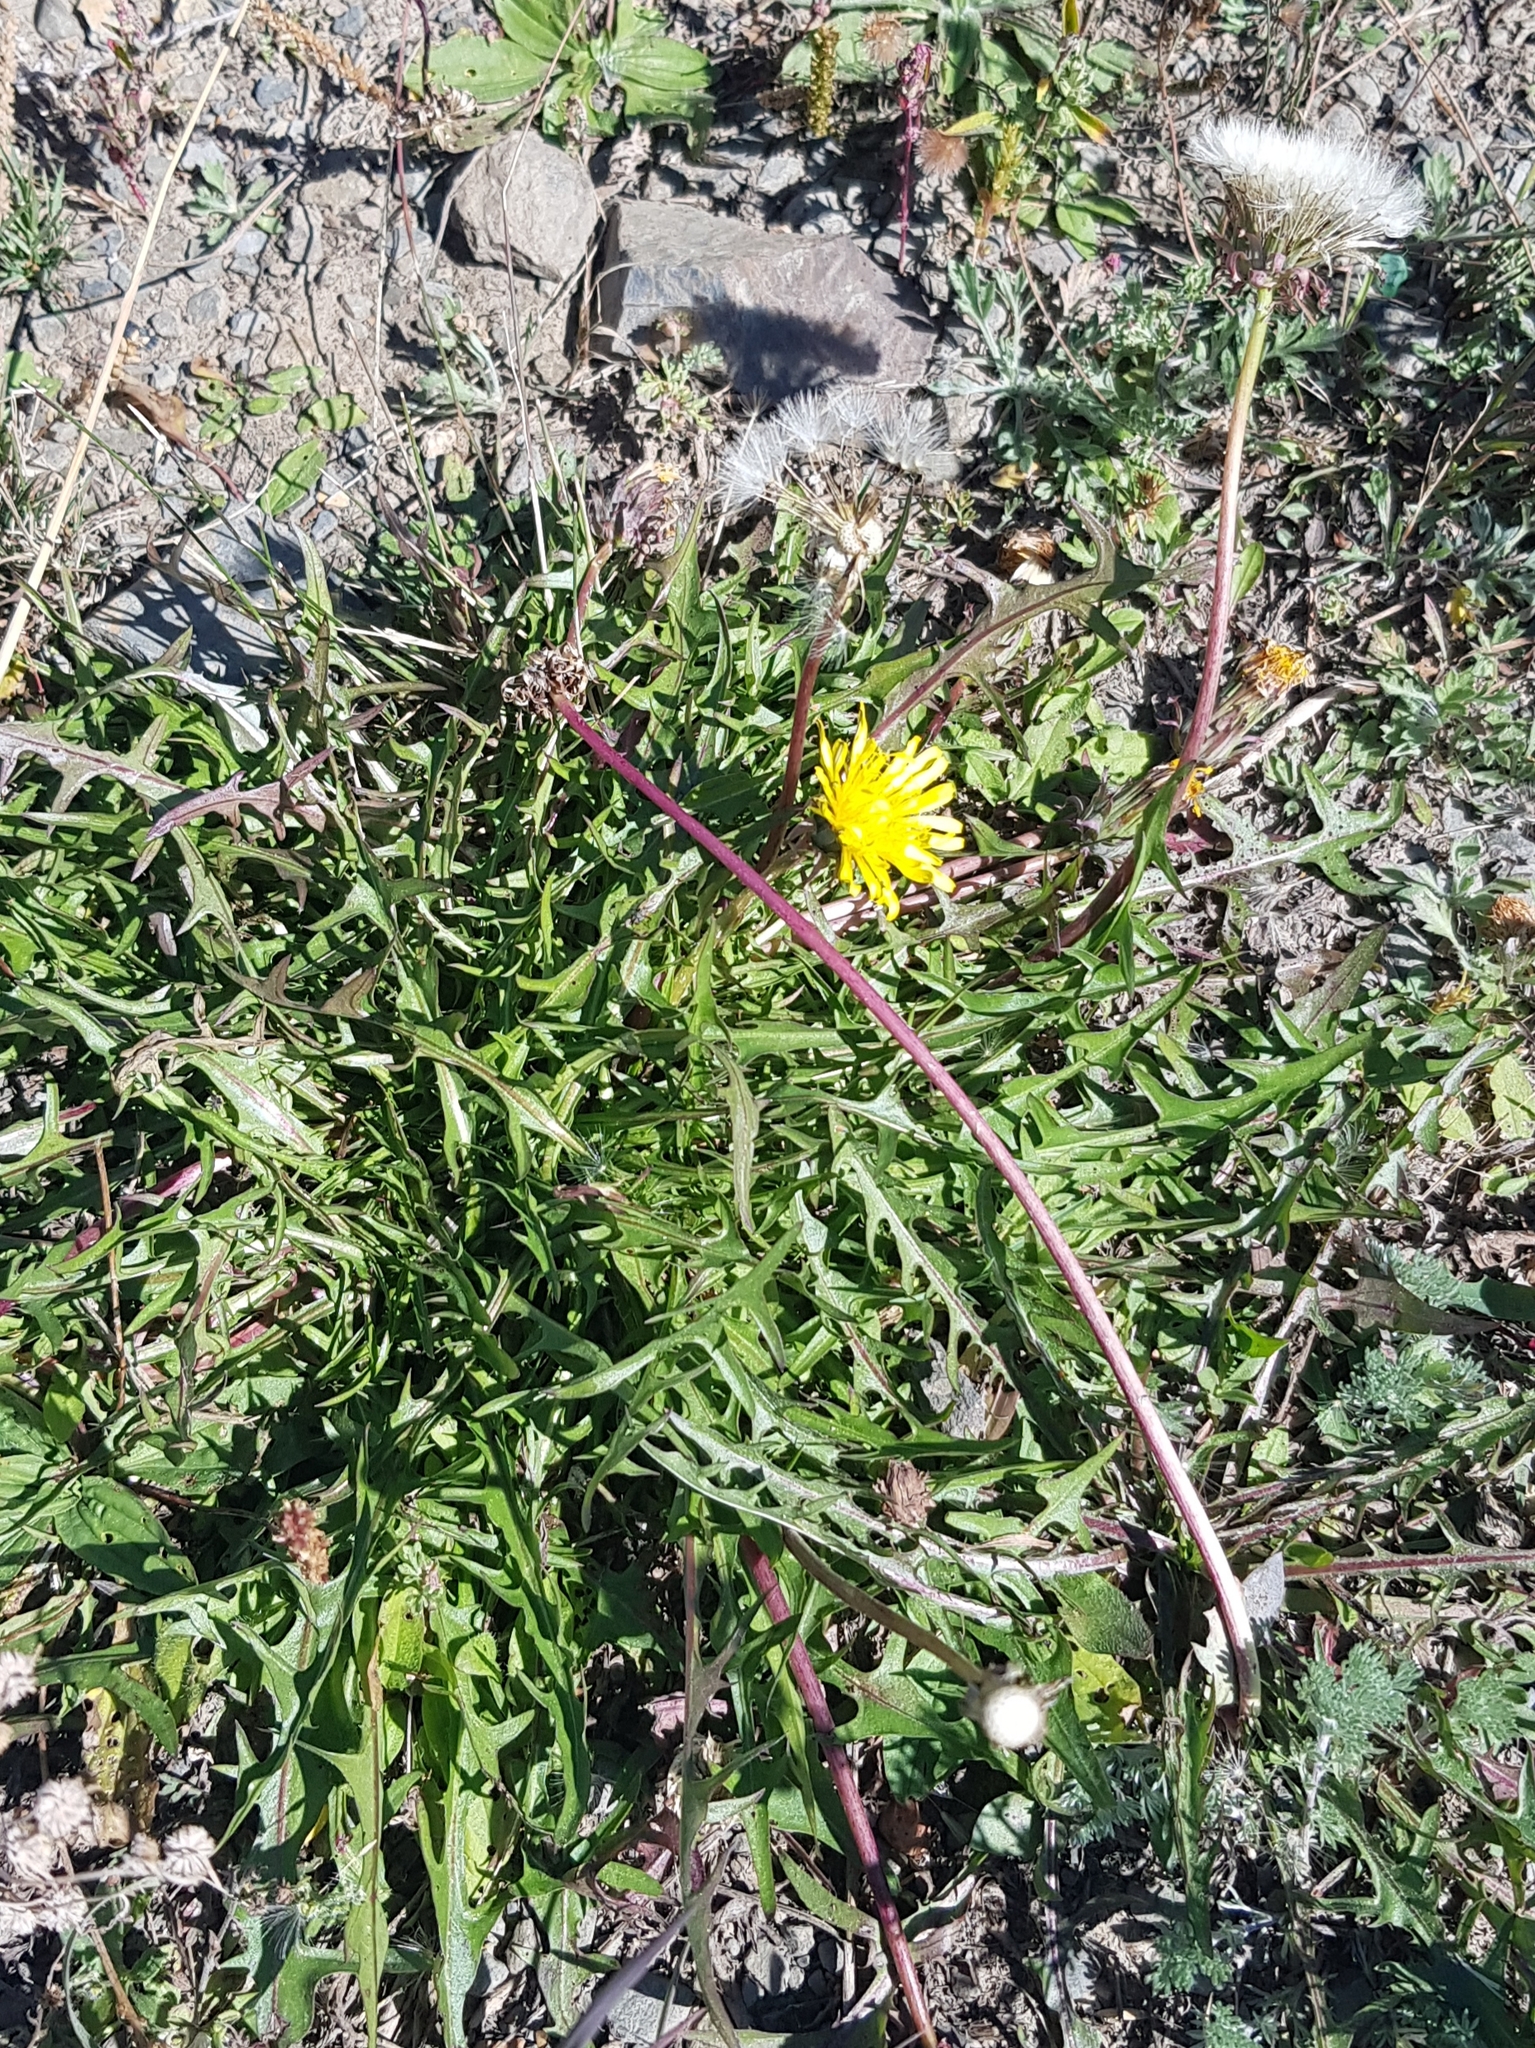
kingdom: Plantae
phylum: Tracheophyta
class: Magnoliopsida
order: Asterales
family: Asteraceae
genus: Taraxacum
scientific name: Taraxacum dissectum
